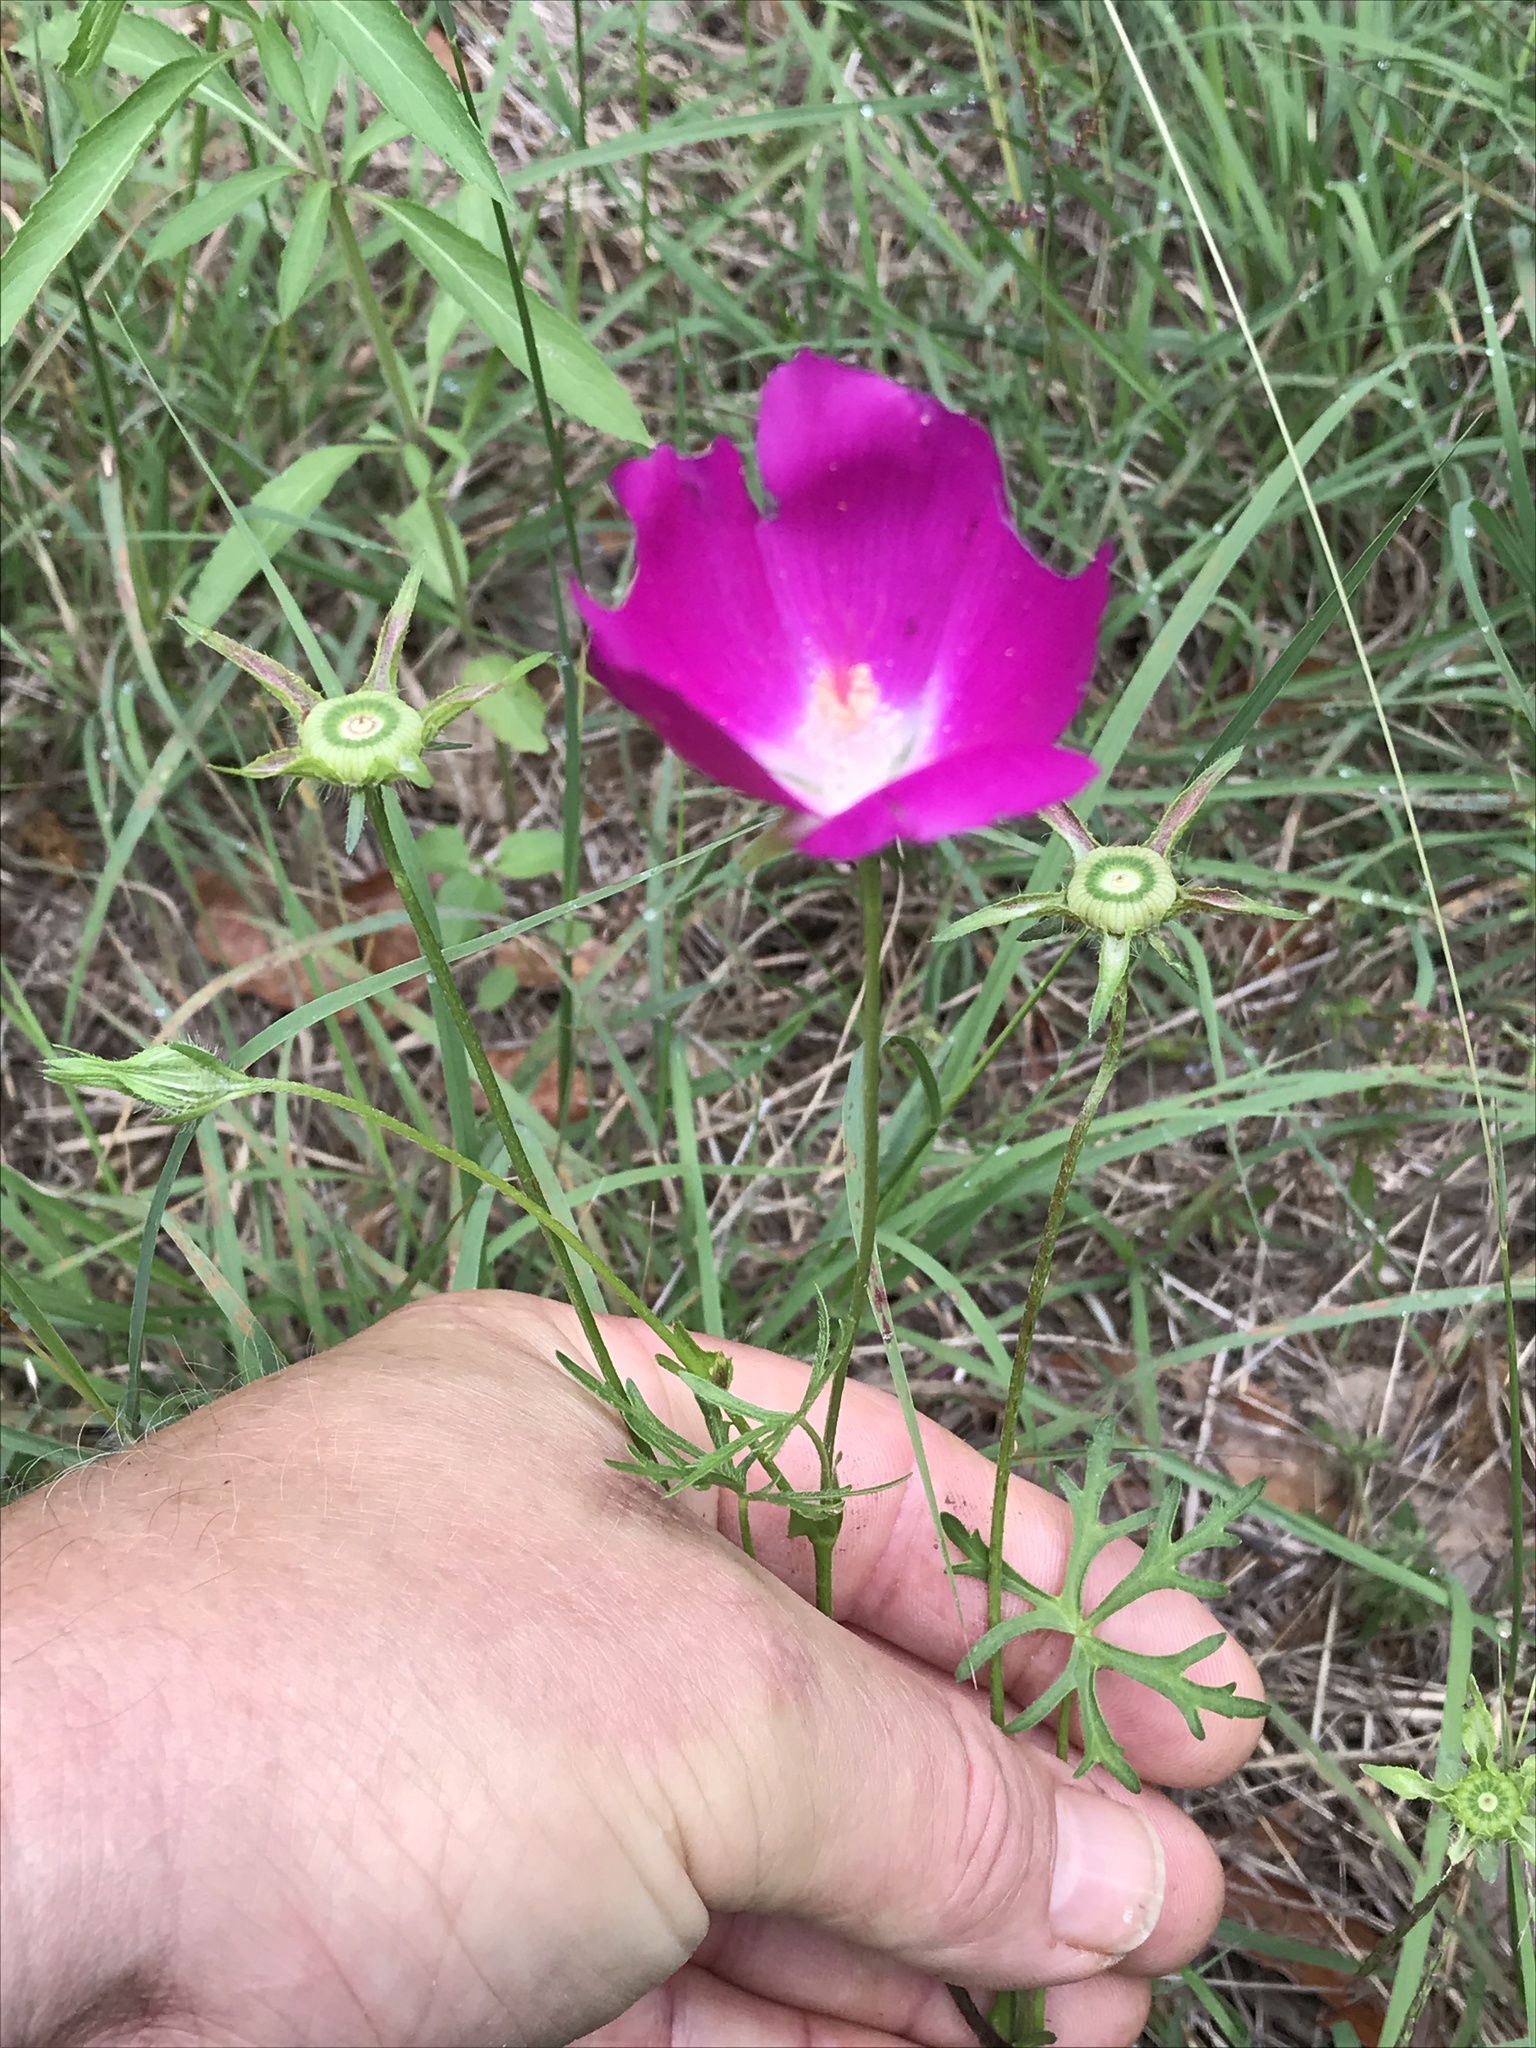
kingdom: Plantae
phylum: Tracheophyta
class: Magnoliopsida
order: Malvales
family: Malvaceae
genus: Callirhoe
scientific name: Callirhoe involucrata
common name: Purple poppy-mallow
